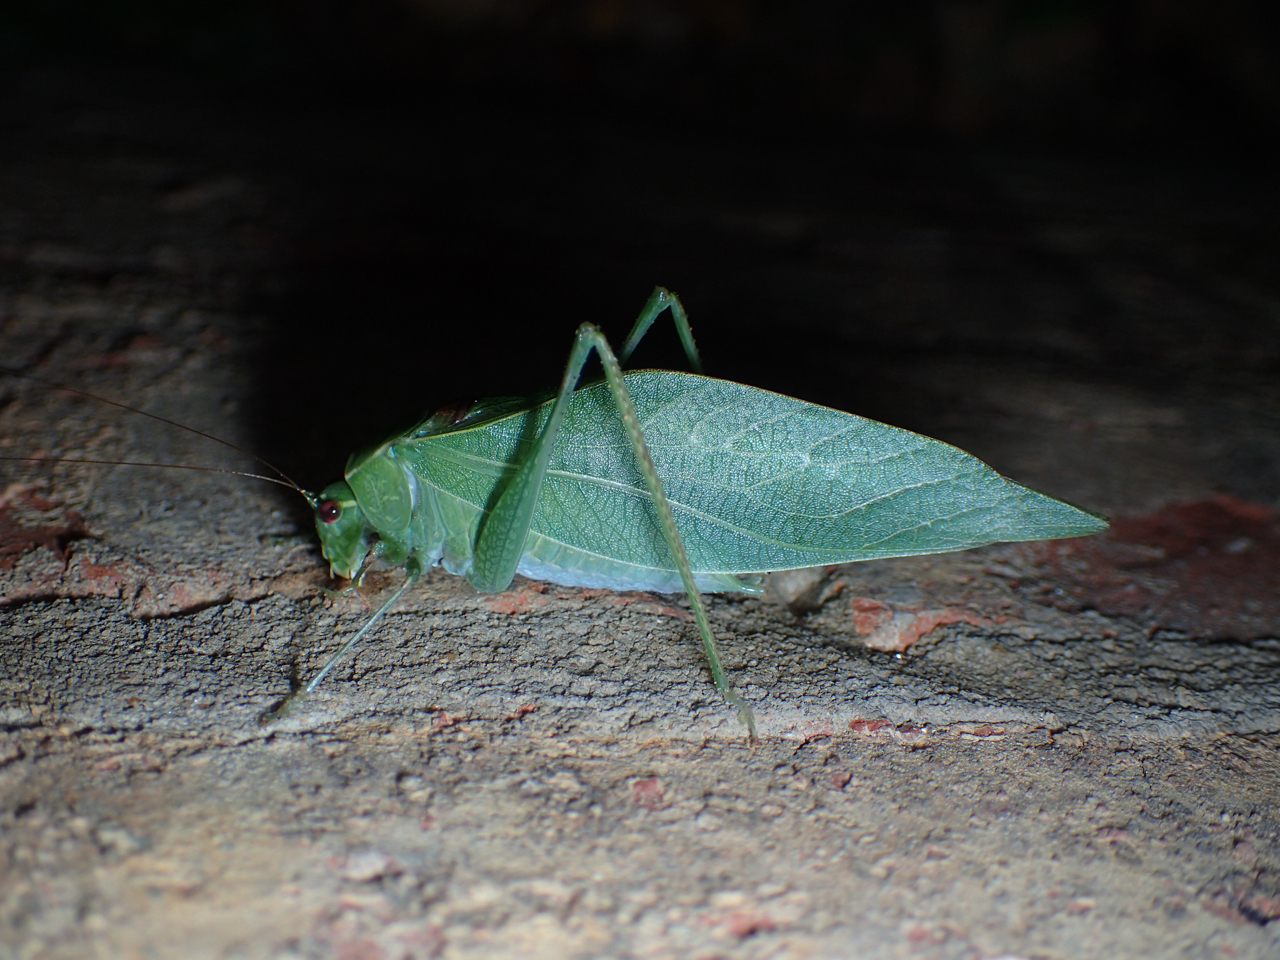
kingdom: Animalia
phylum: Arthropoda
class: Insecta
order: Orthoptera
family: Tettigoniidae
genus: Microcentrum
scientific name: Microcentrum retinerve
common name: Angular-winged katydid
